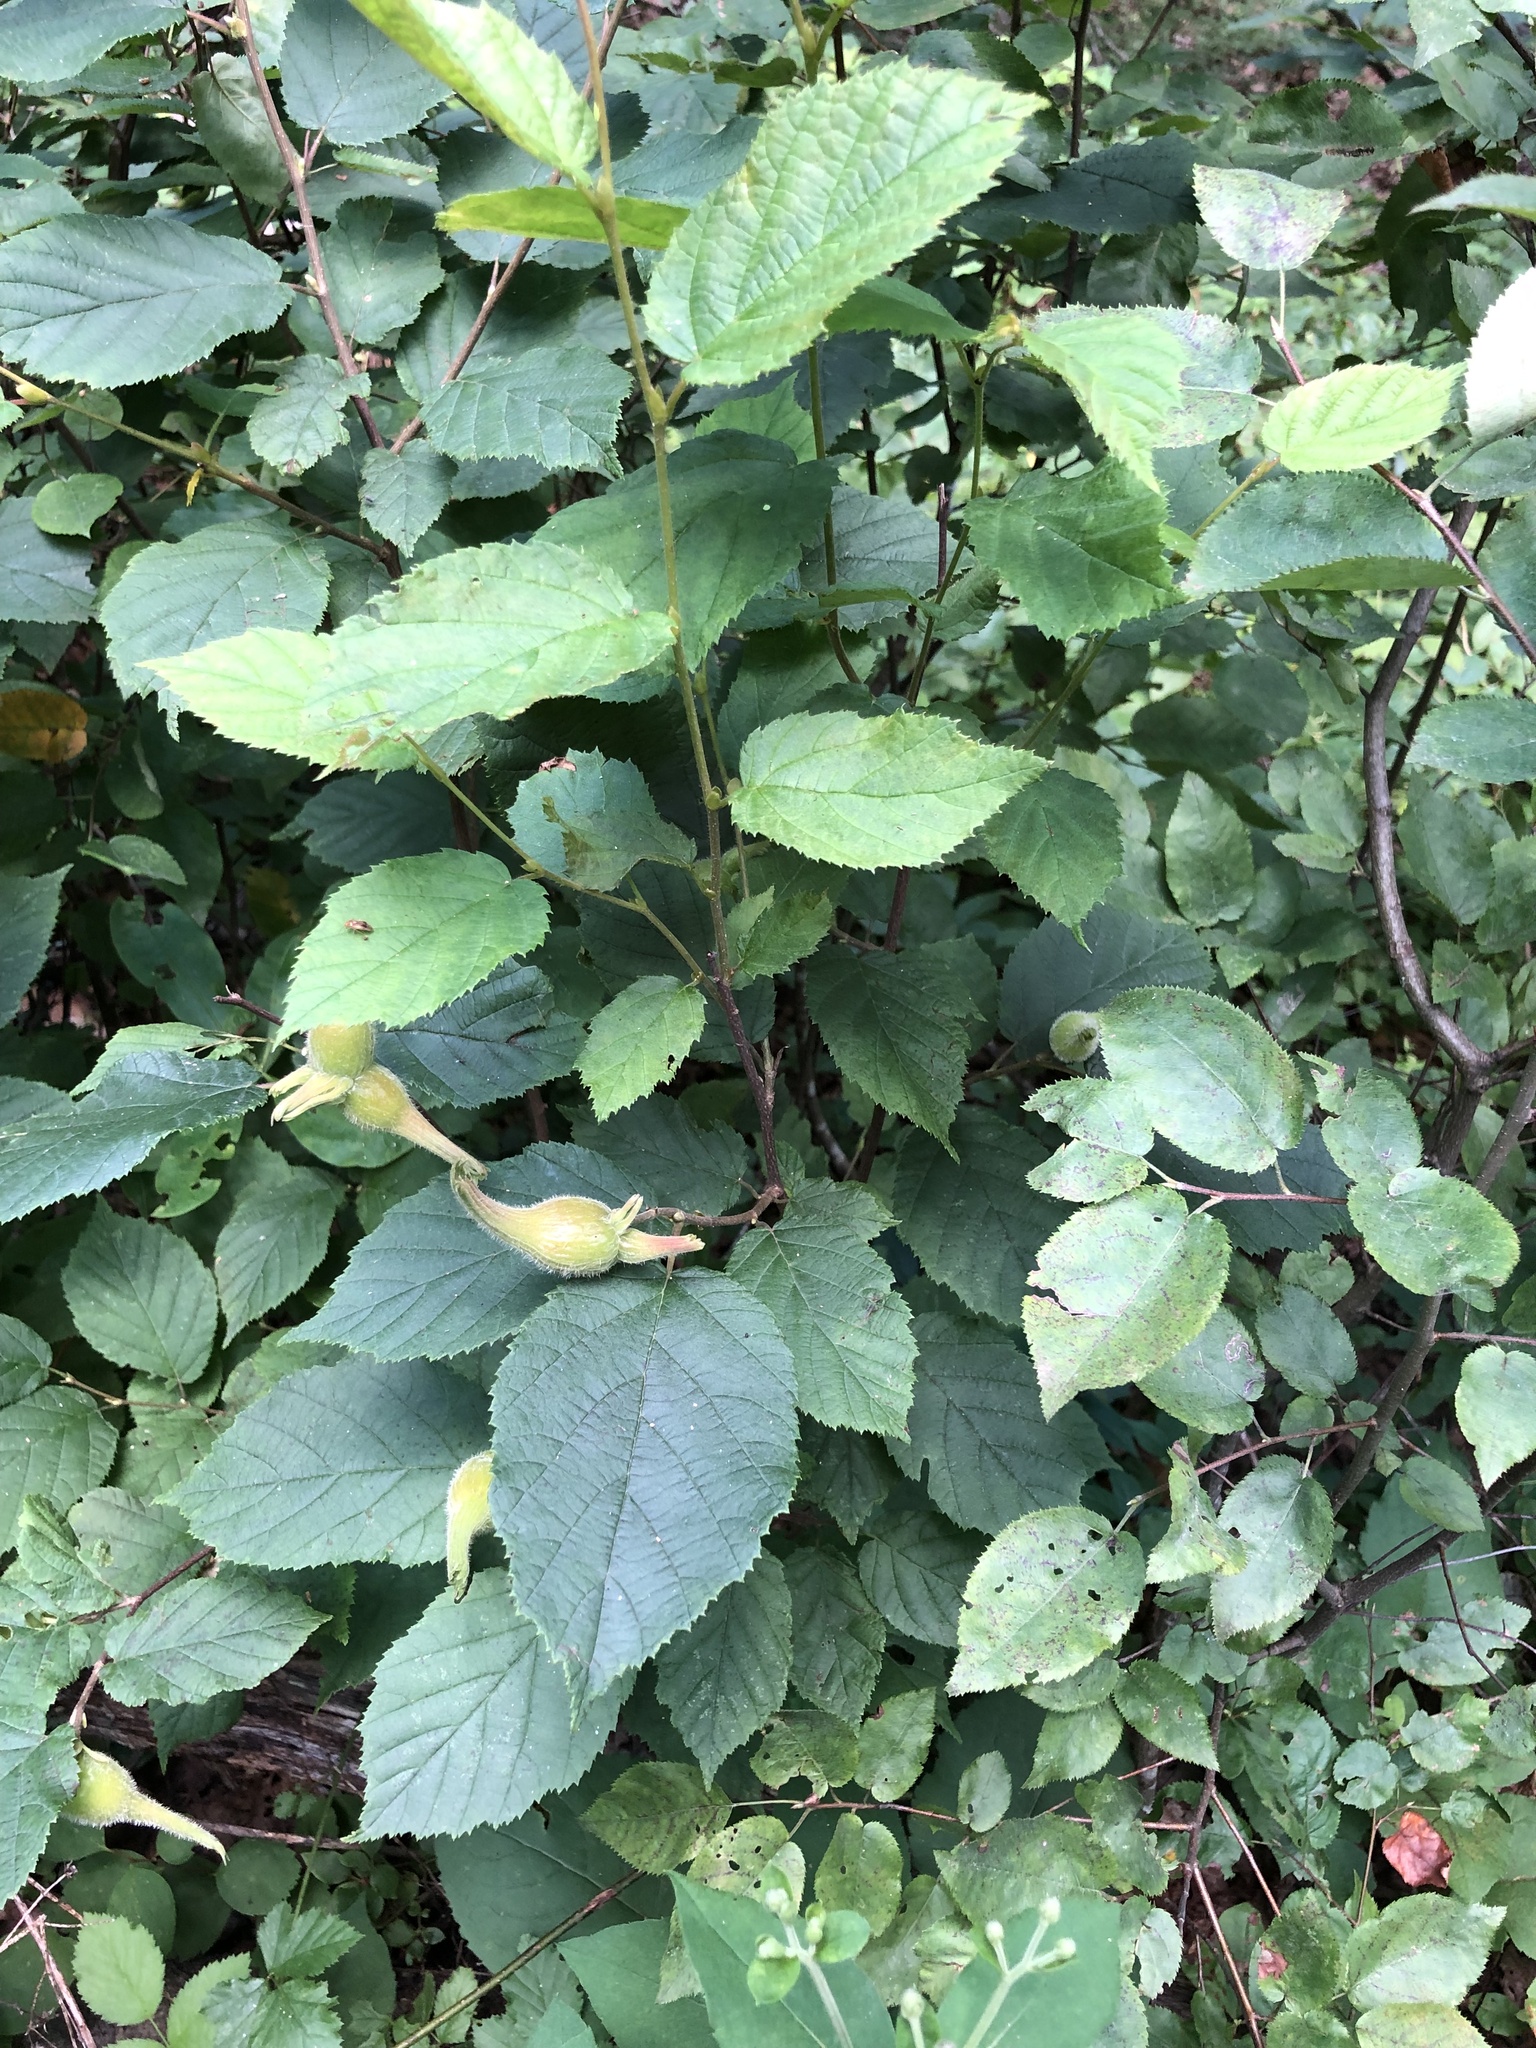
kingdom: Plantae
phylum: Tracheophyta
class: Magnoliopsida
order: Fagales
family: Betulaceae
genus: Corylus
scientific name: Corylus cornuta
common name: Beaked hazel
